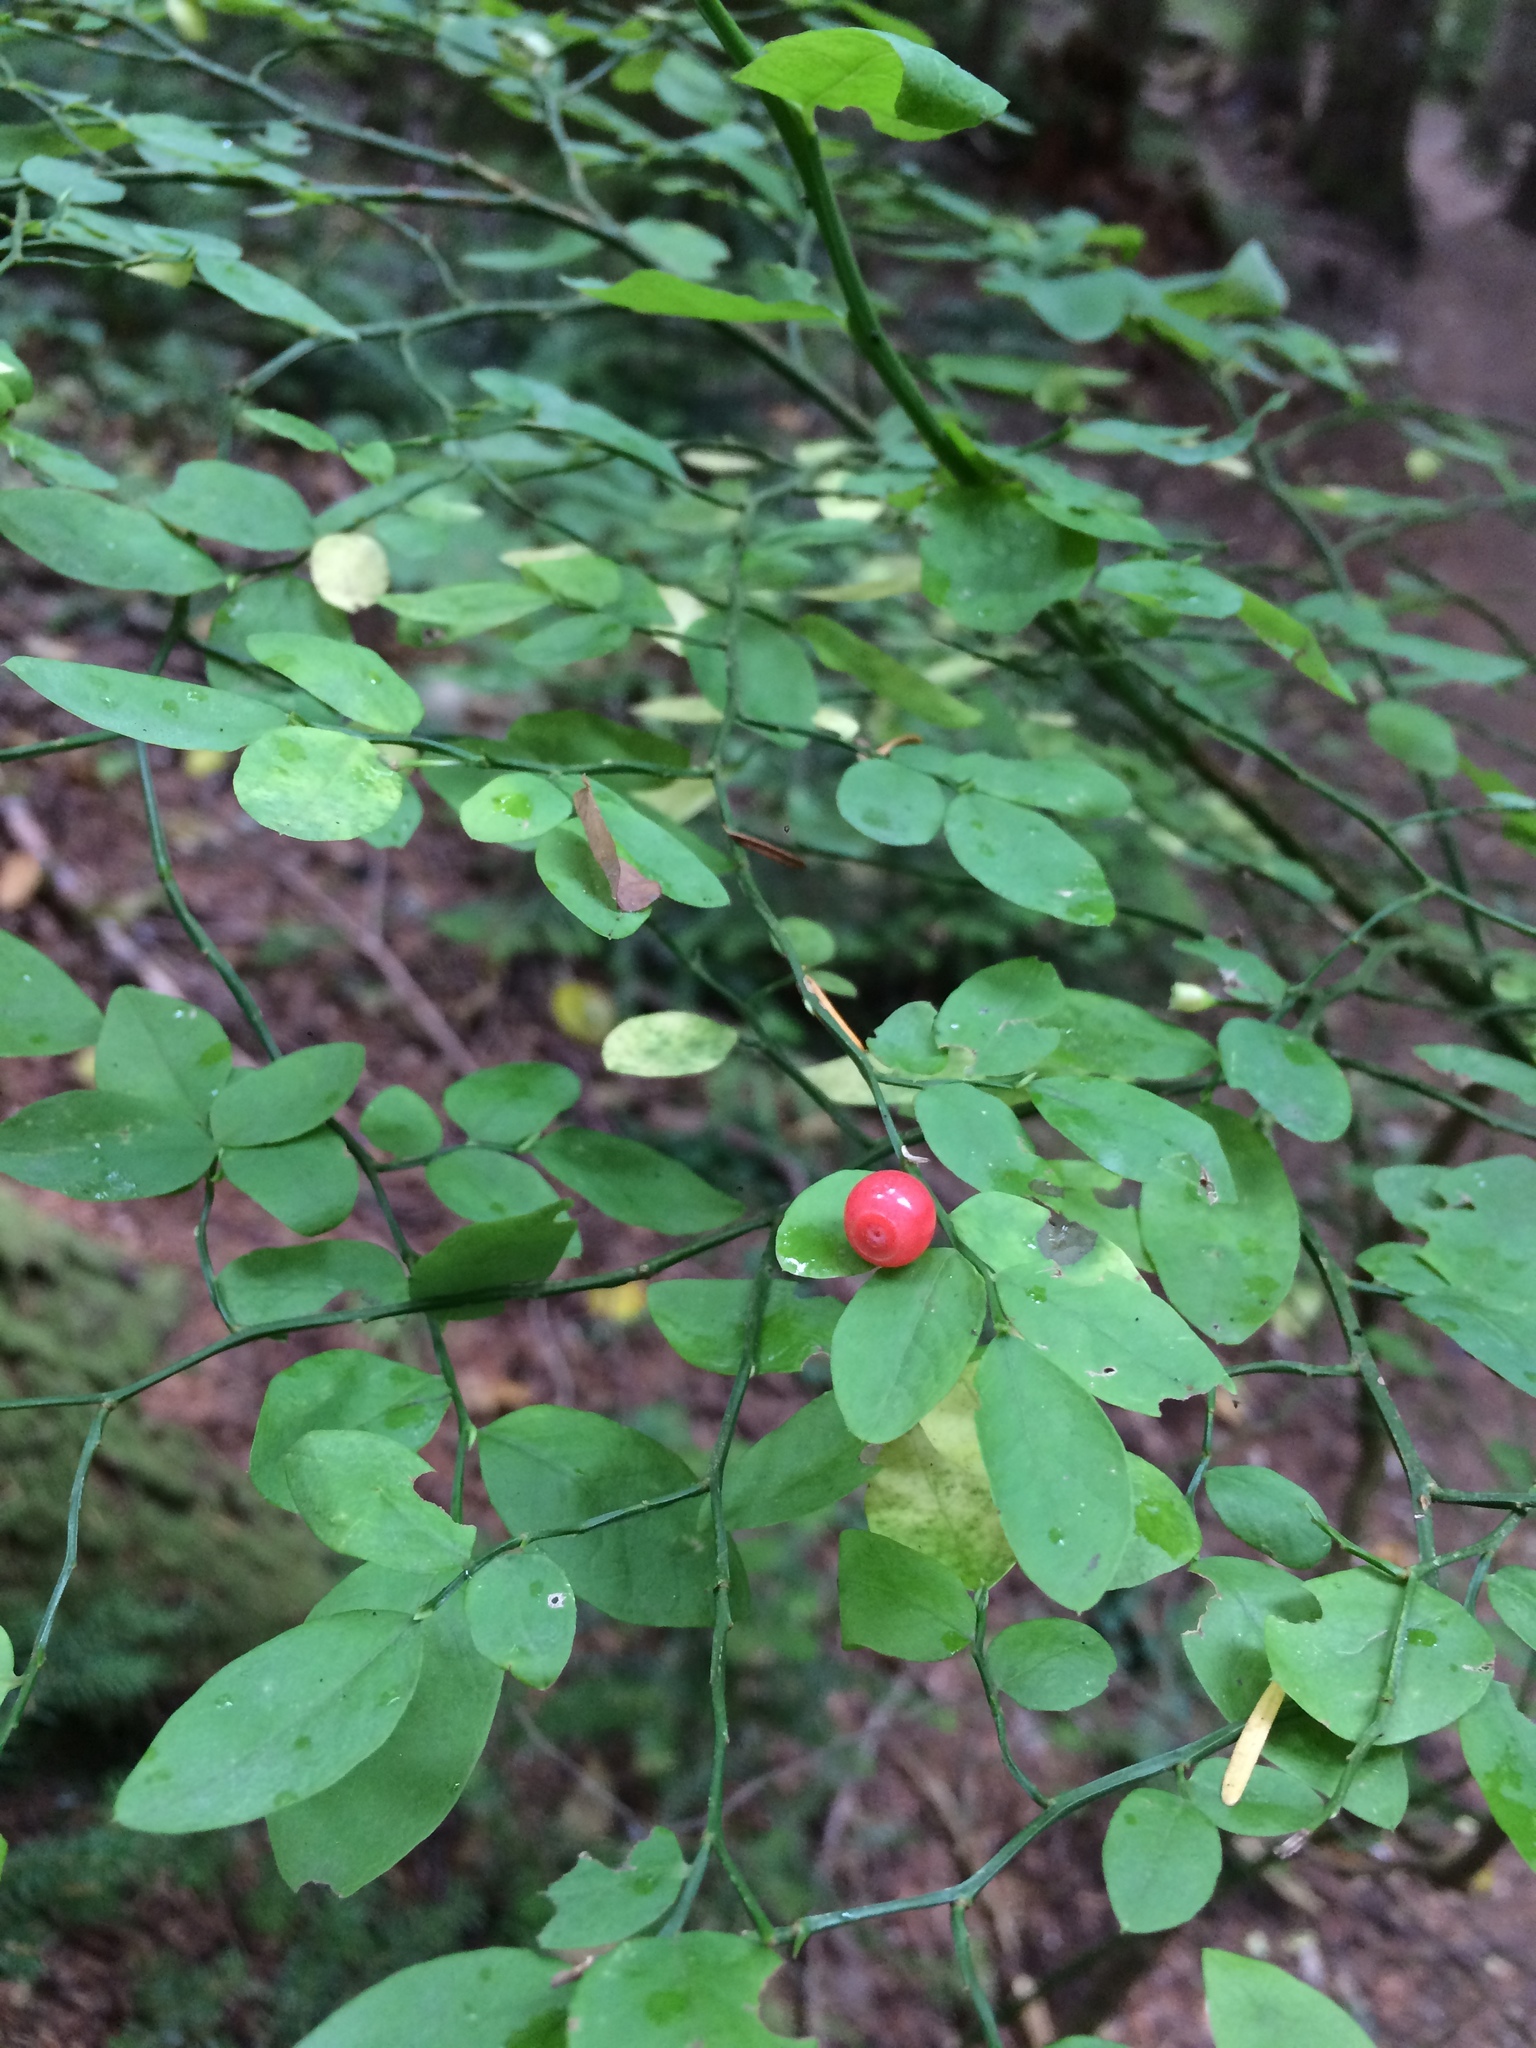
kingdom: Plantae
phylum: Tracheophyta
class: Magnoliopsida
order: Ericales
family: Ericaceae
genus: Vaccinium
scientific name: Vaccinium parvifolium
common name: Red-huckleberry
